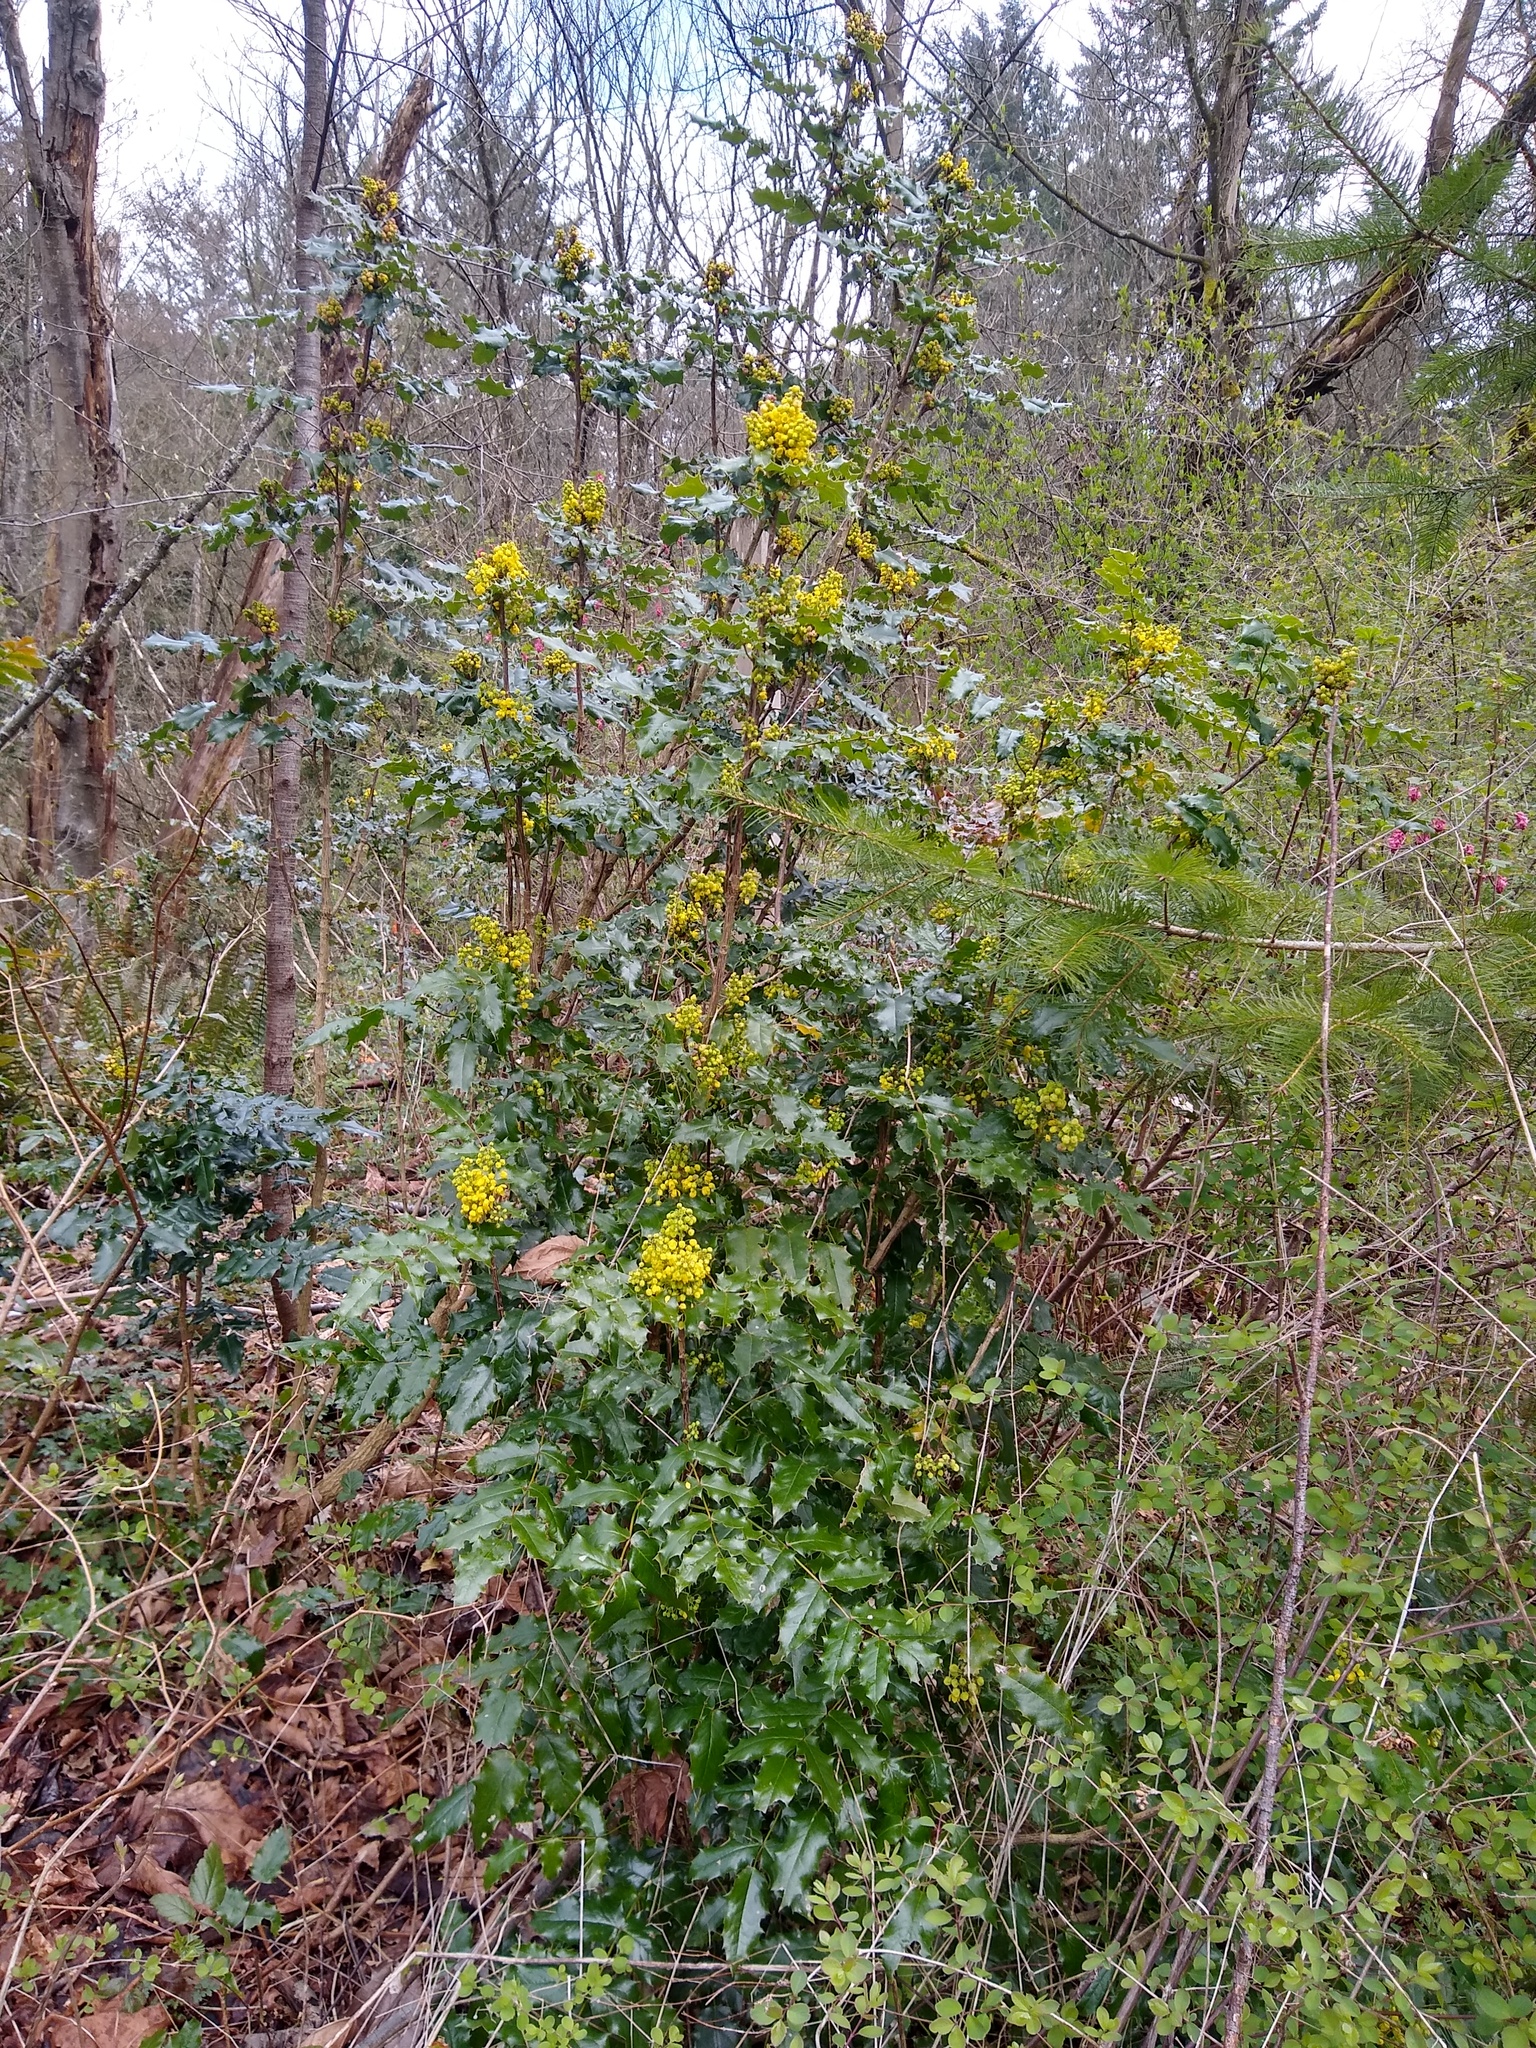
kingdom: Plantae
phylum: Tracheophyta
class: Magnoliopsida
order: Ranunculales
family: Berberidaceae
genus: Mahonia
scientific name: Mahonia aquifolium
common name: Oregon-grape
